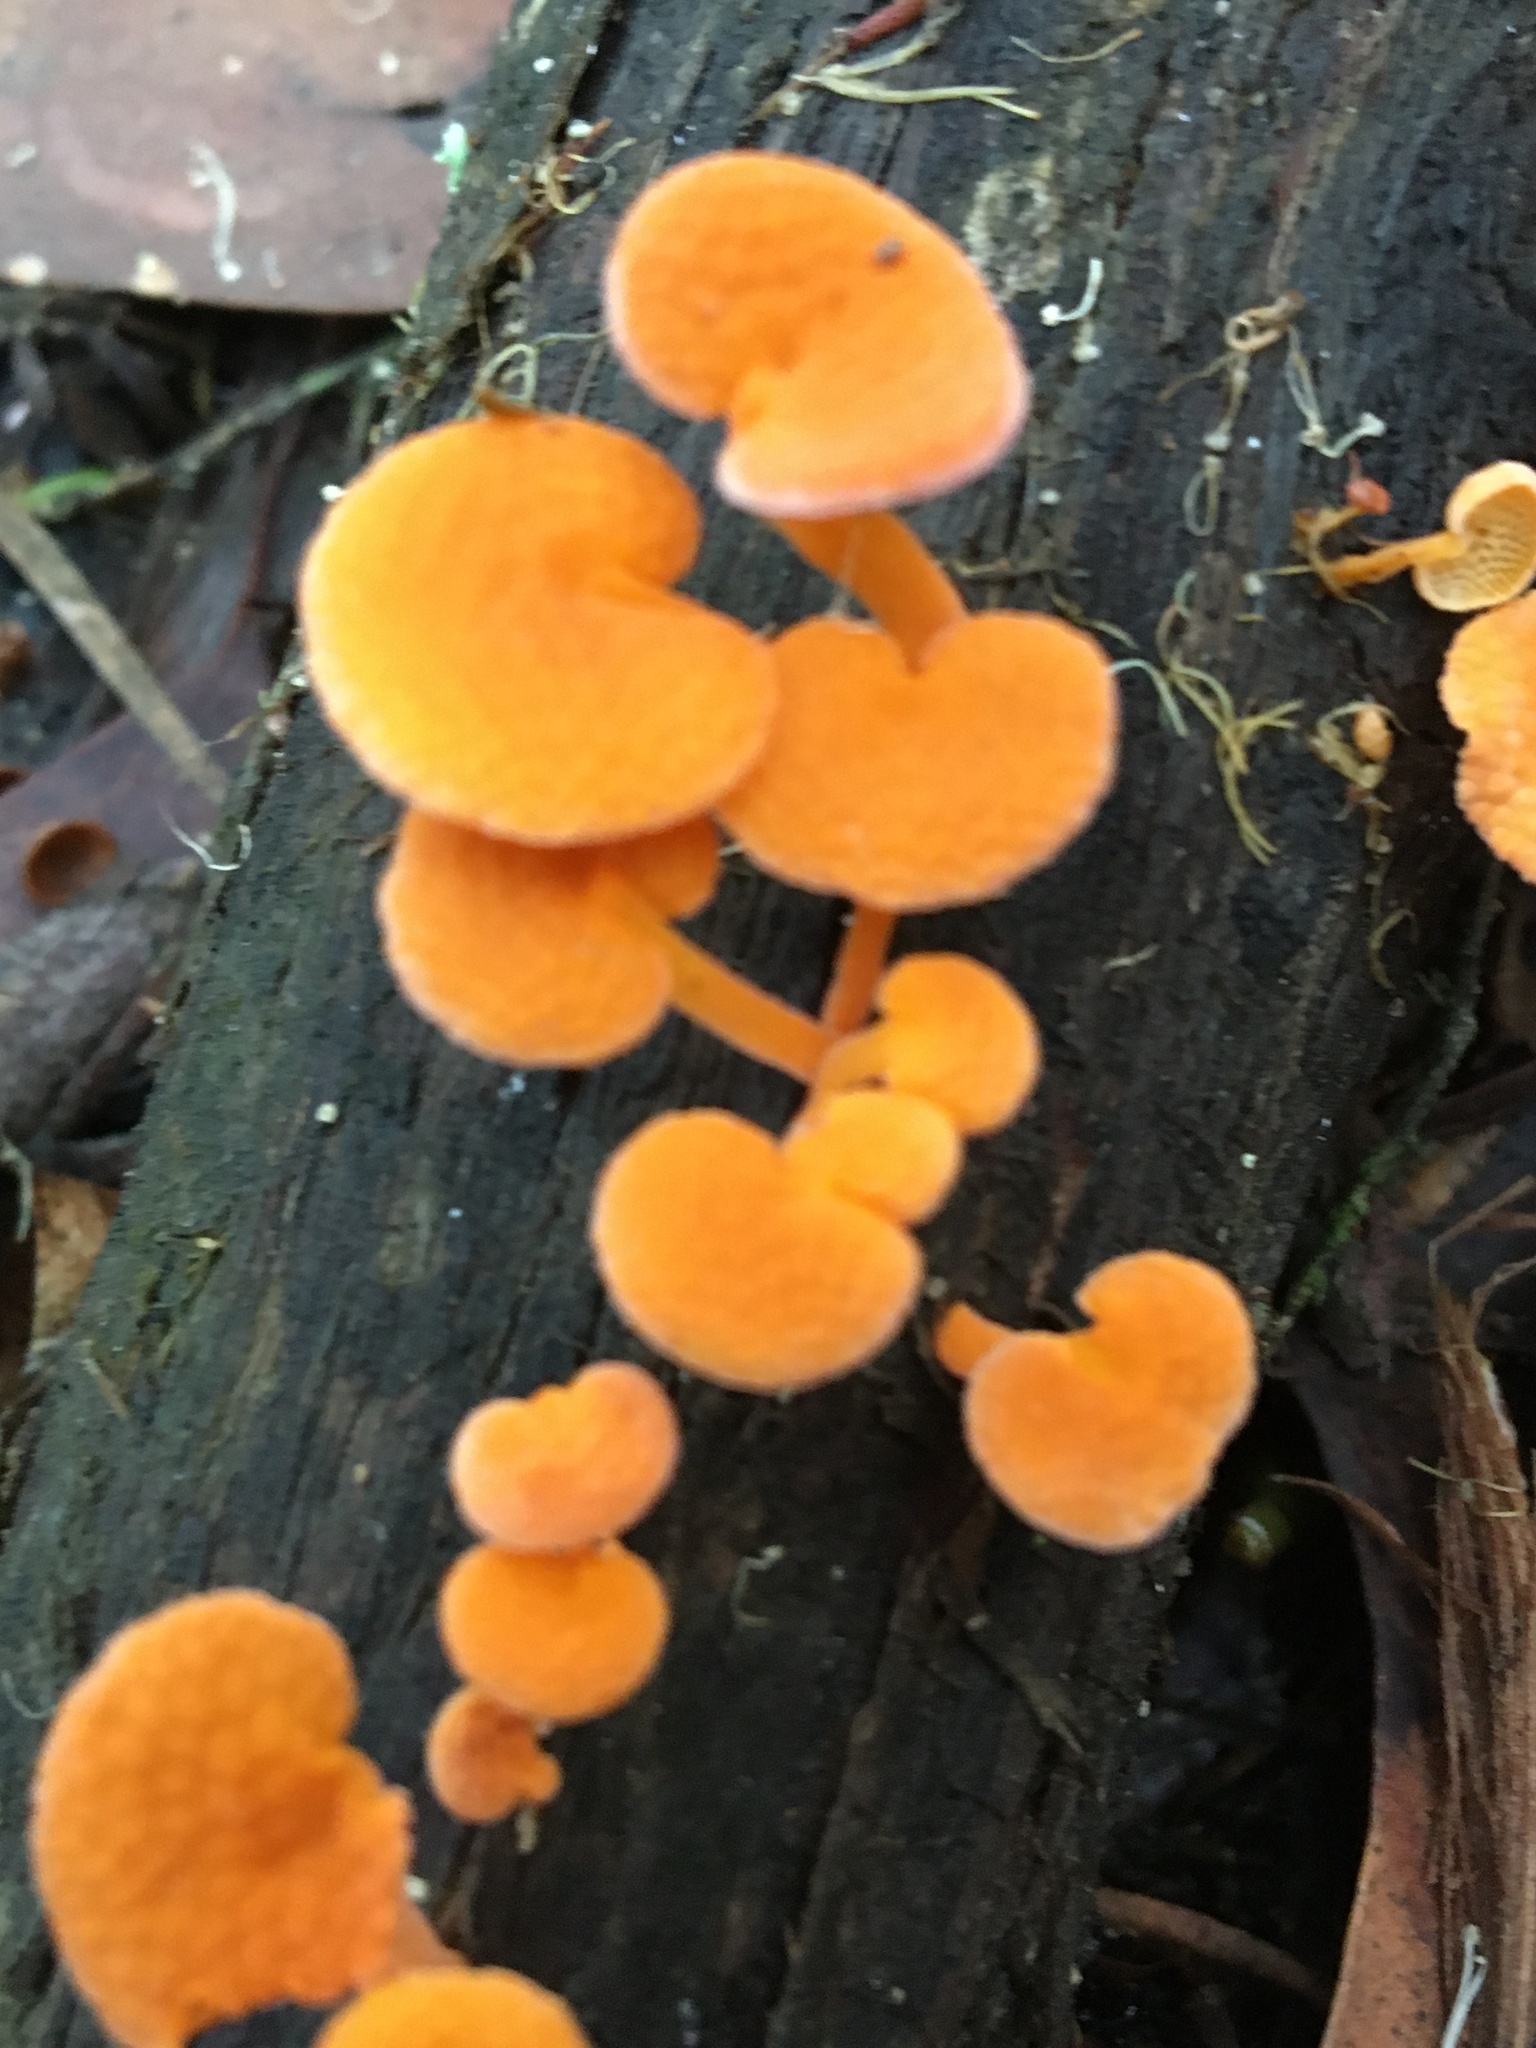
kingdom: Fungi
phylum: Basidiomycota
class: Agaricomycetes
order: Agaricales
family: Mycenaceae
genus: Favolaschia
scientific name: Favolaschia claudopus
